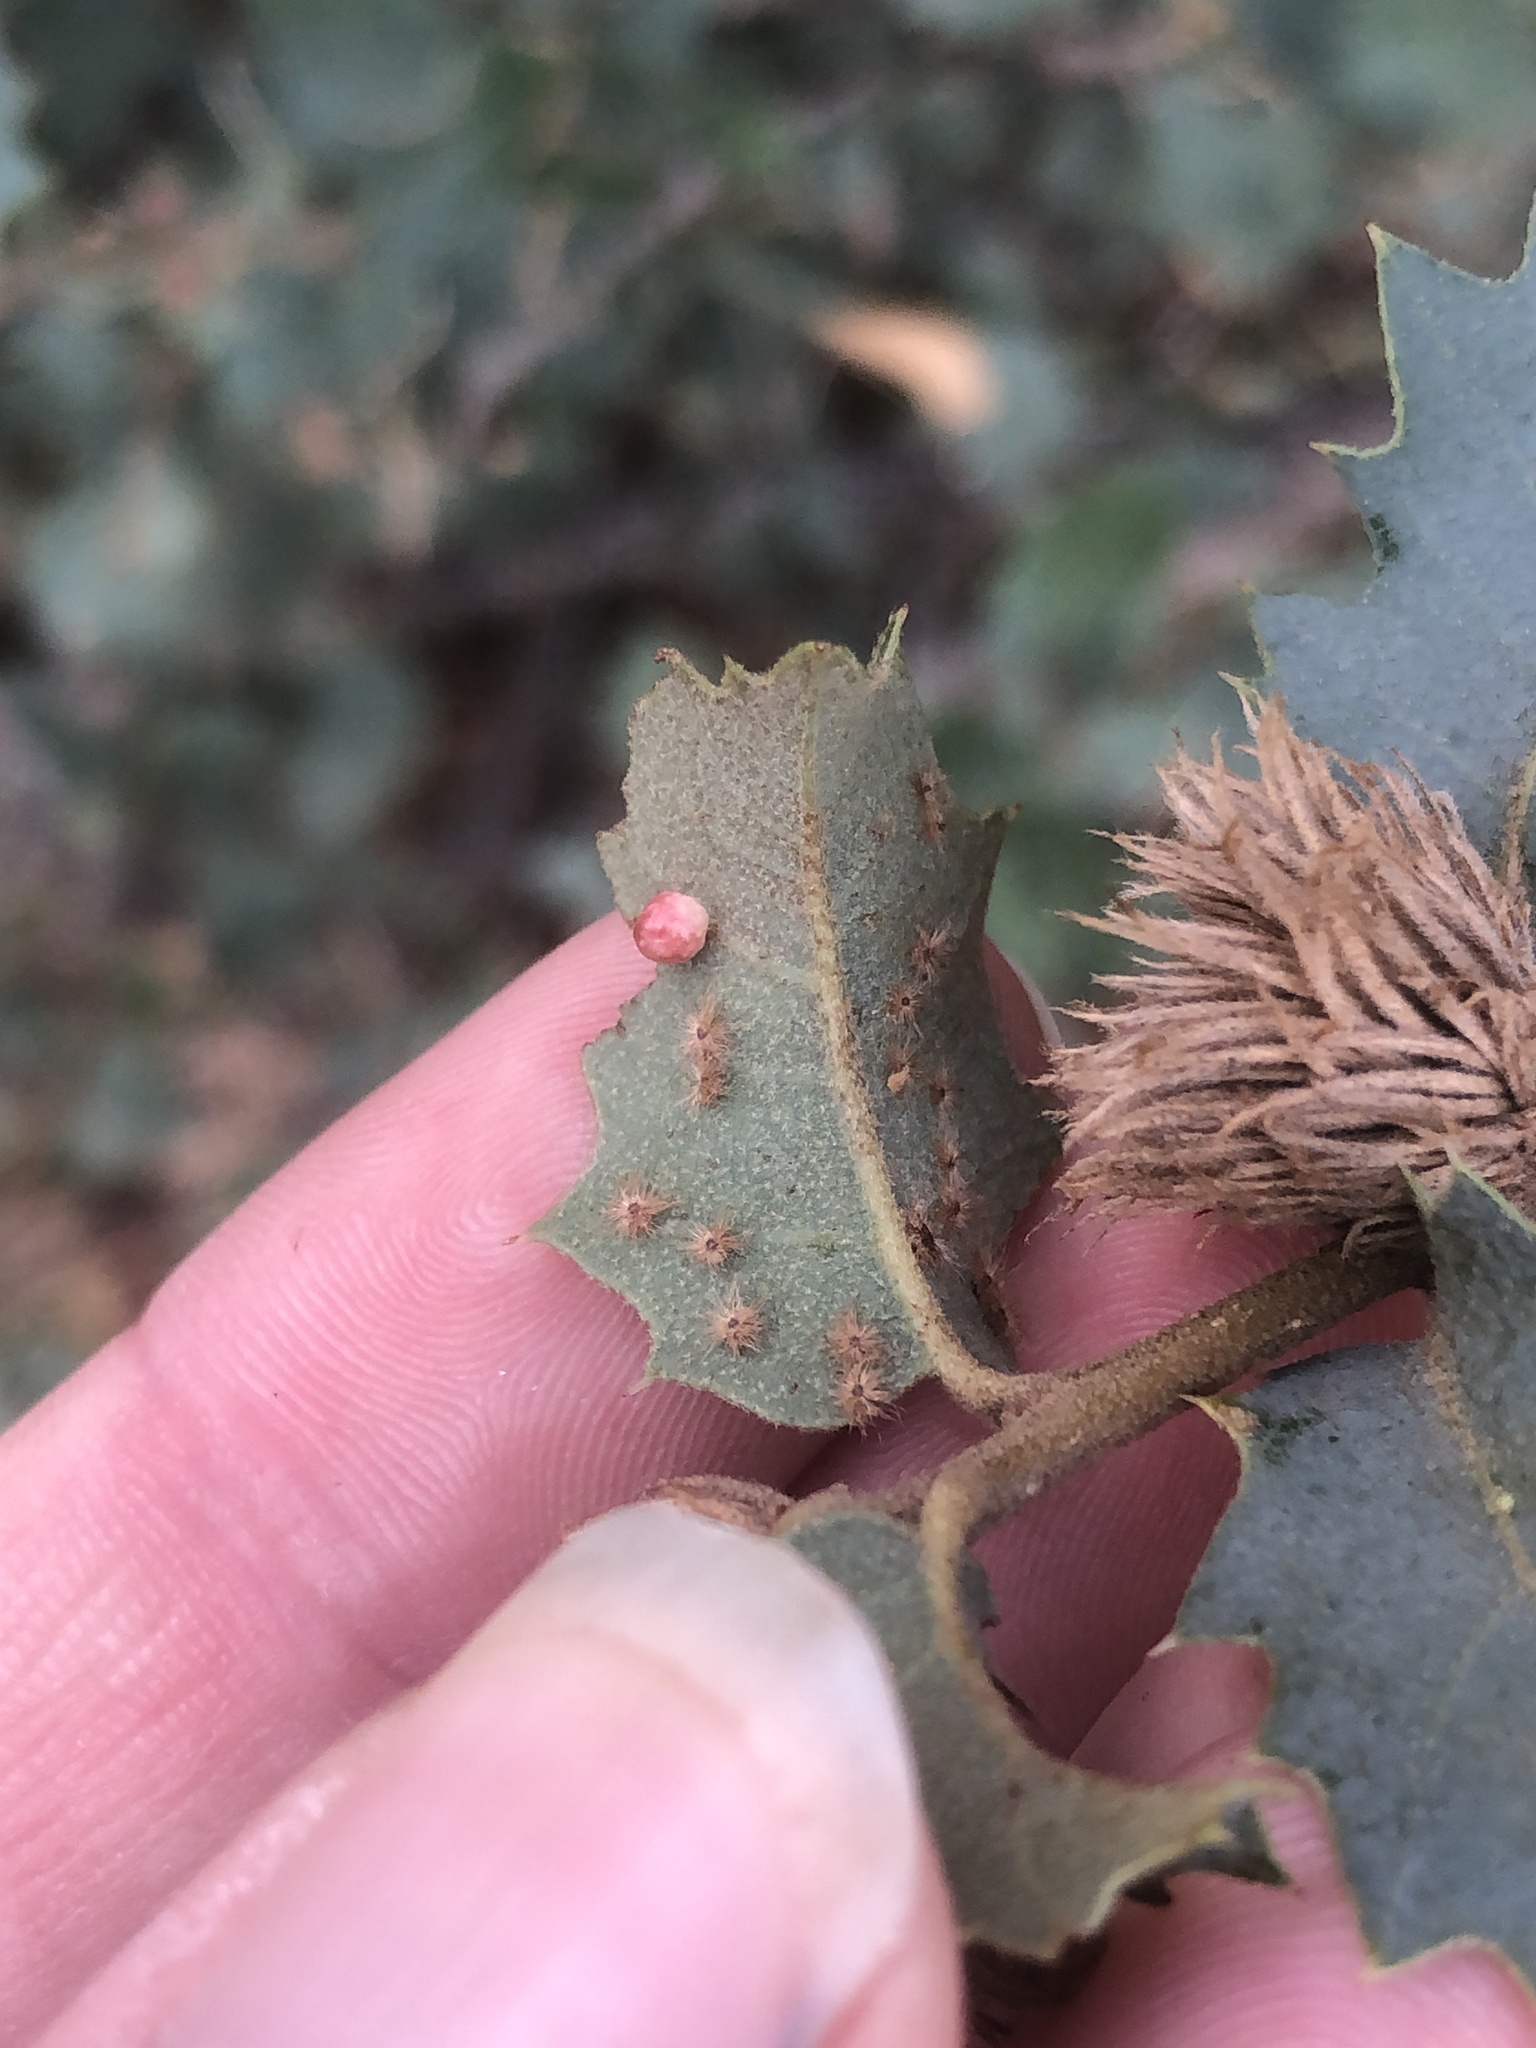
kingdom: Animalia
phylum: Arthropoda
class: Insecta
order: Hymenoptera
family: Cynipidae
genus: Neuroterus
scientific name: Neuroterus
